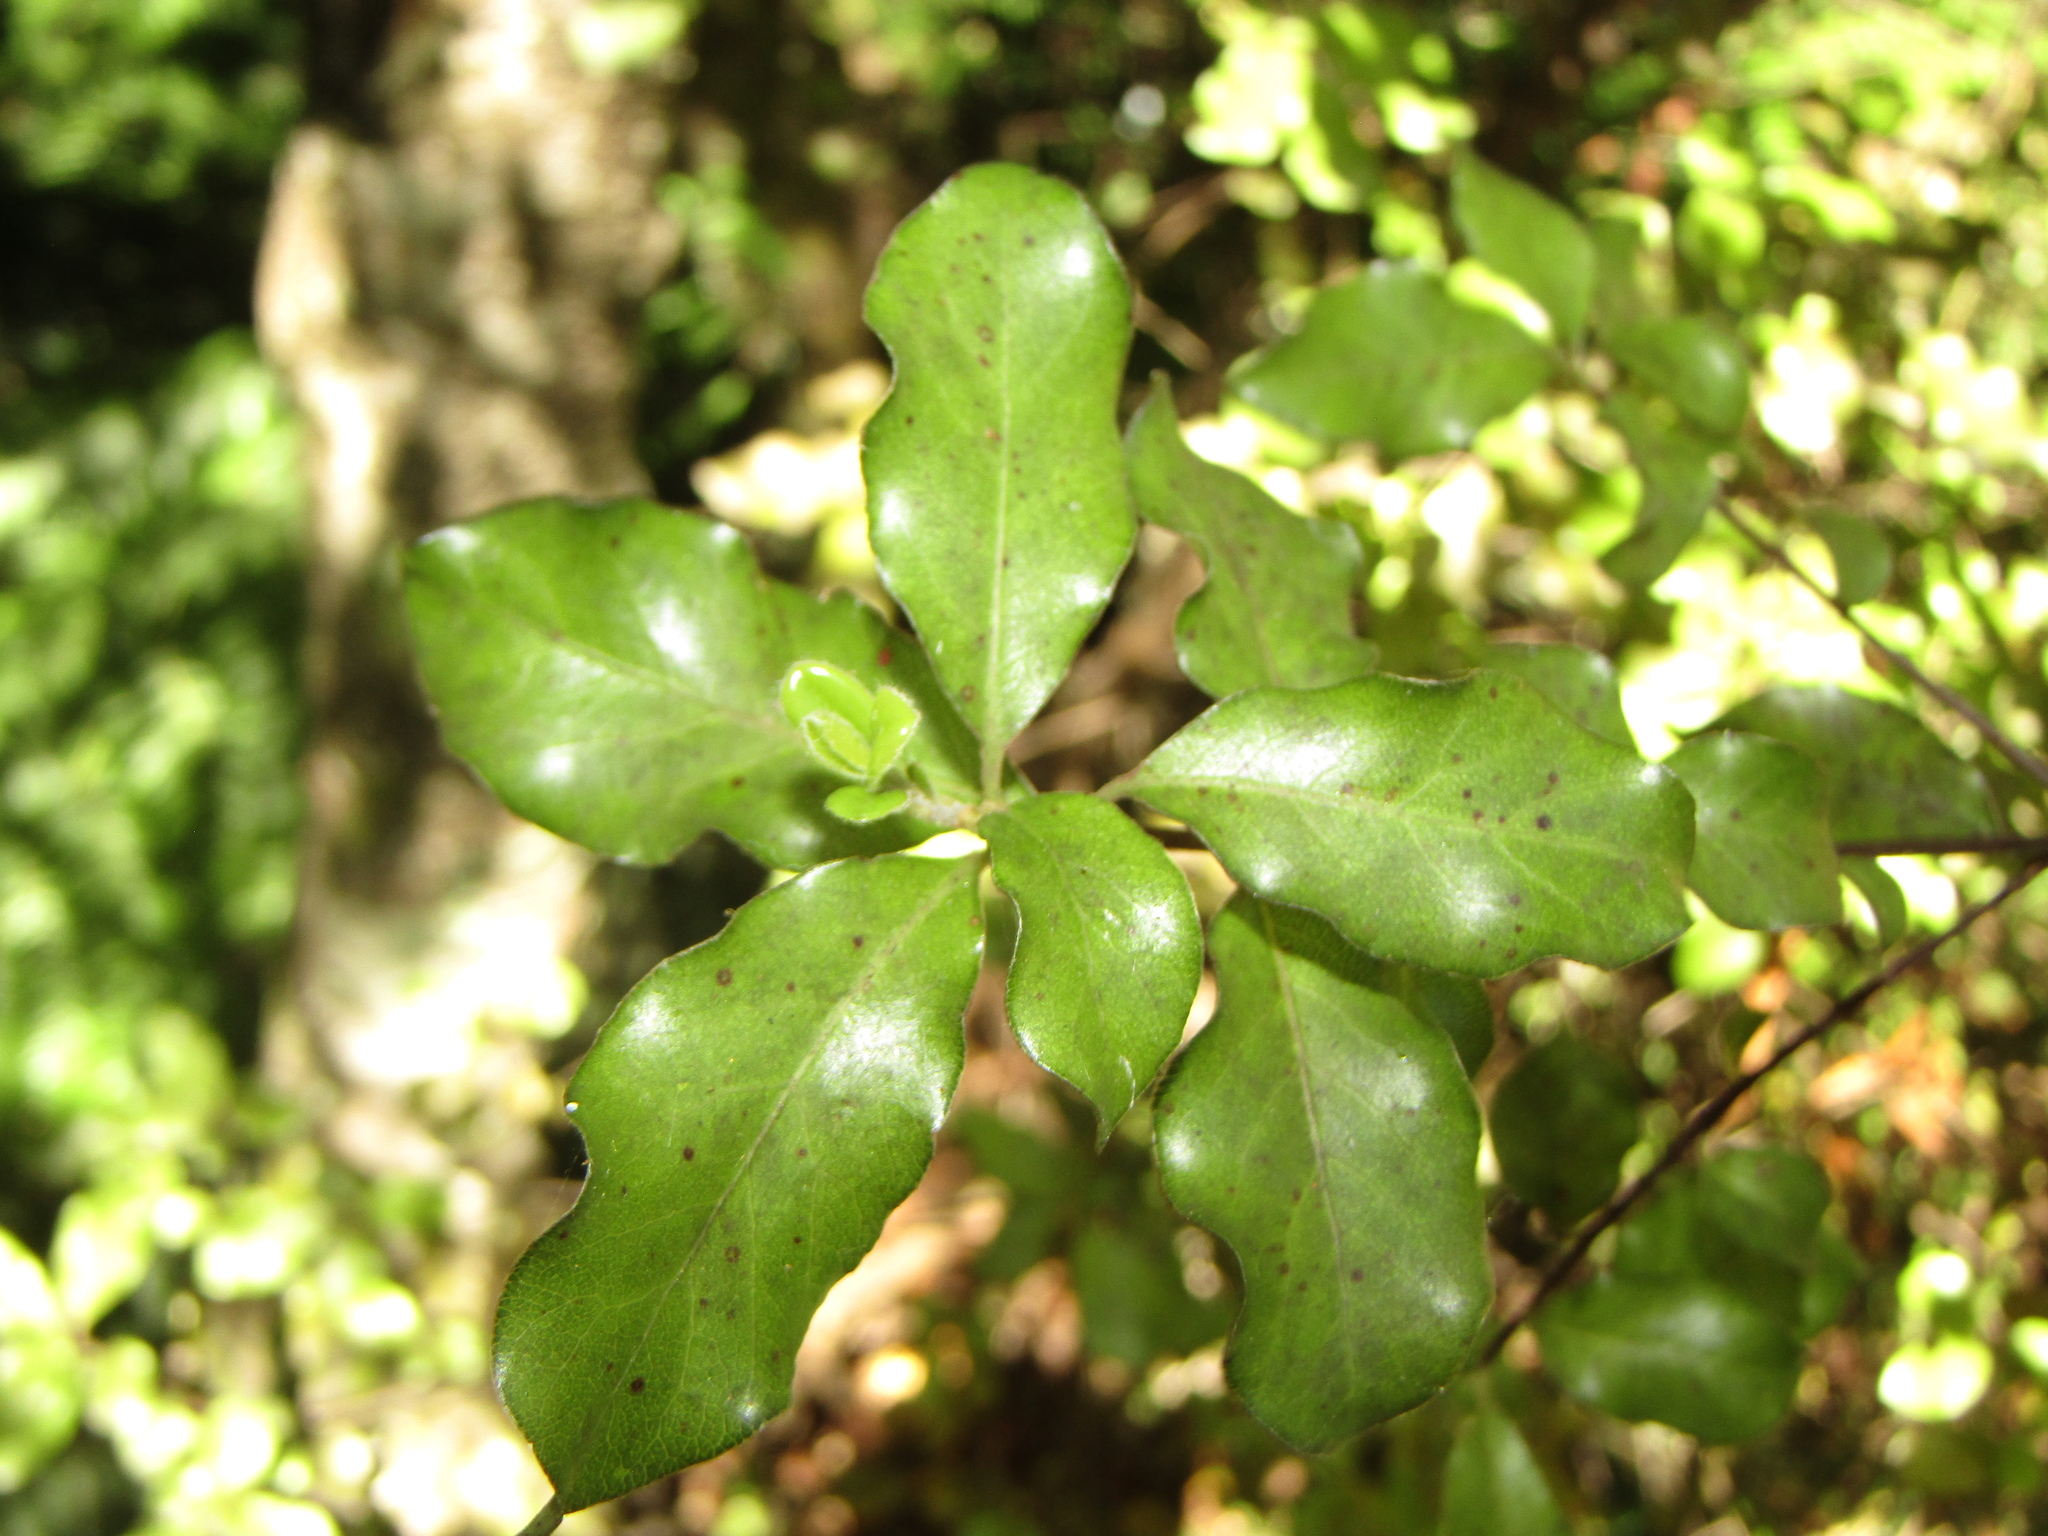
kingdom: Plantae
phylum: Tracheophyta
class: Magnoliopsida
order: Apiales
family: Pittosporaceae
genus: Pittosporum
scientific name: Pittosporum tenuifolium
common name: Kohuhu
